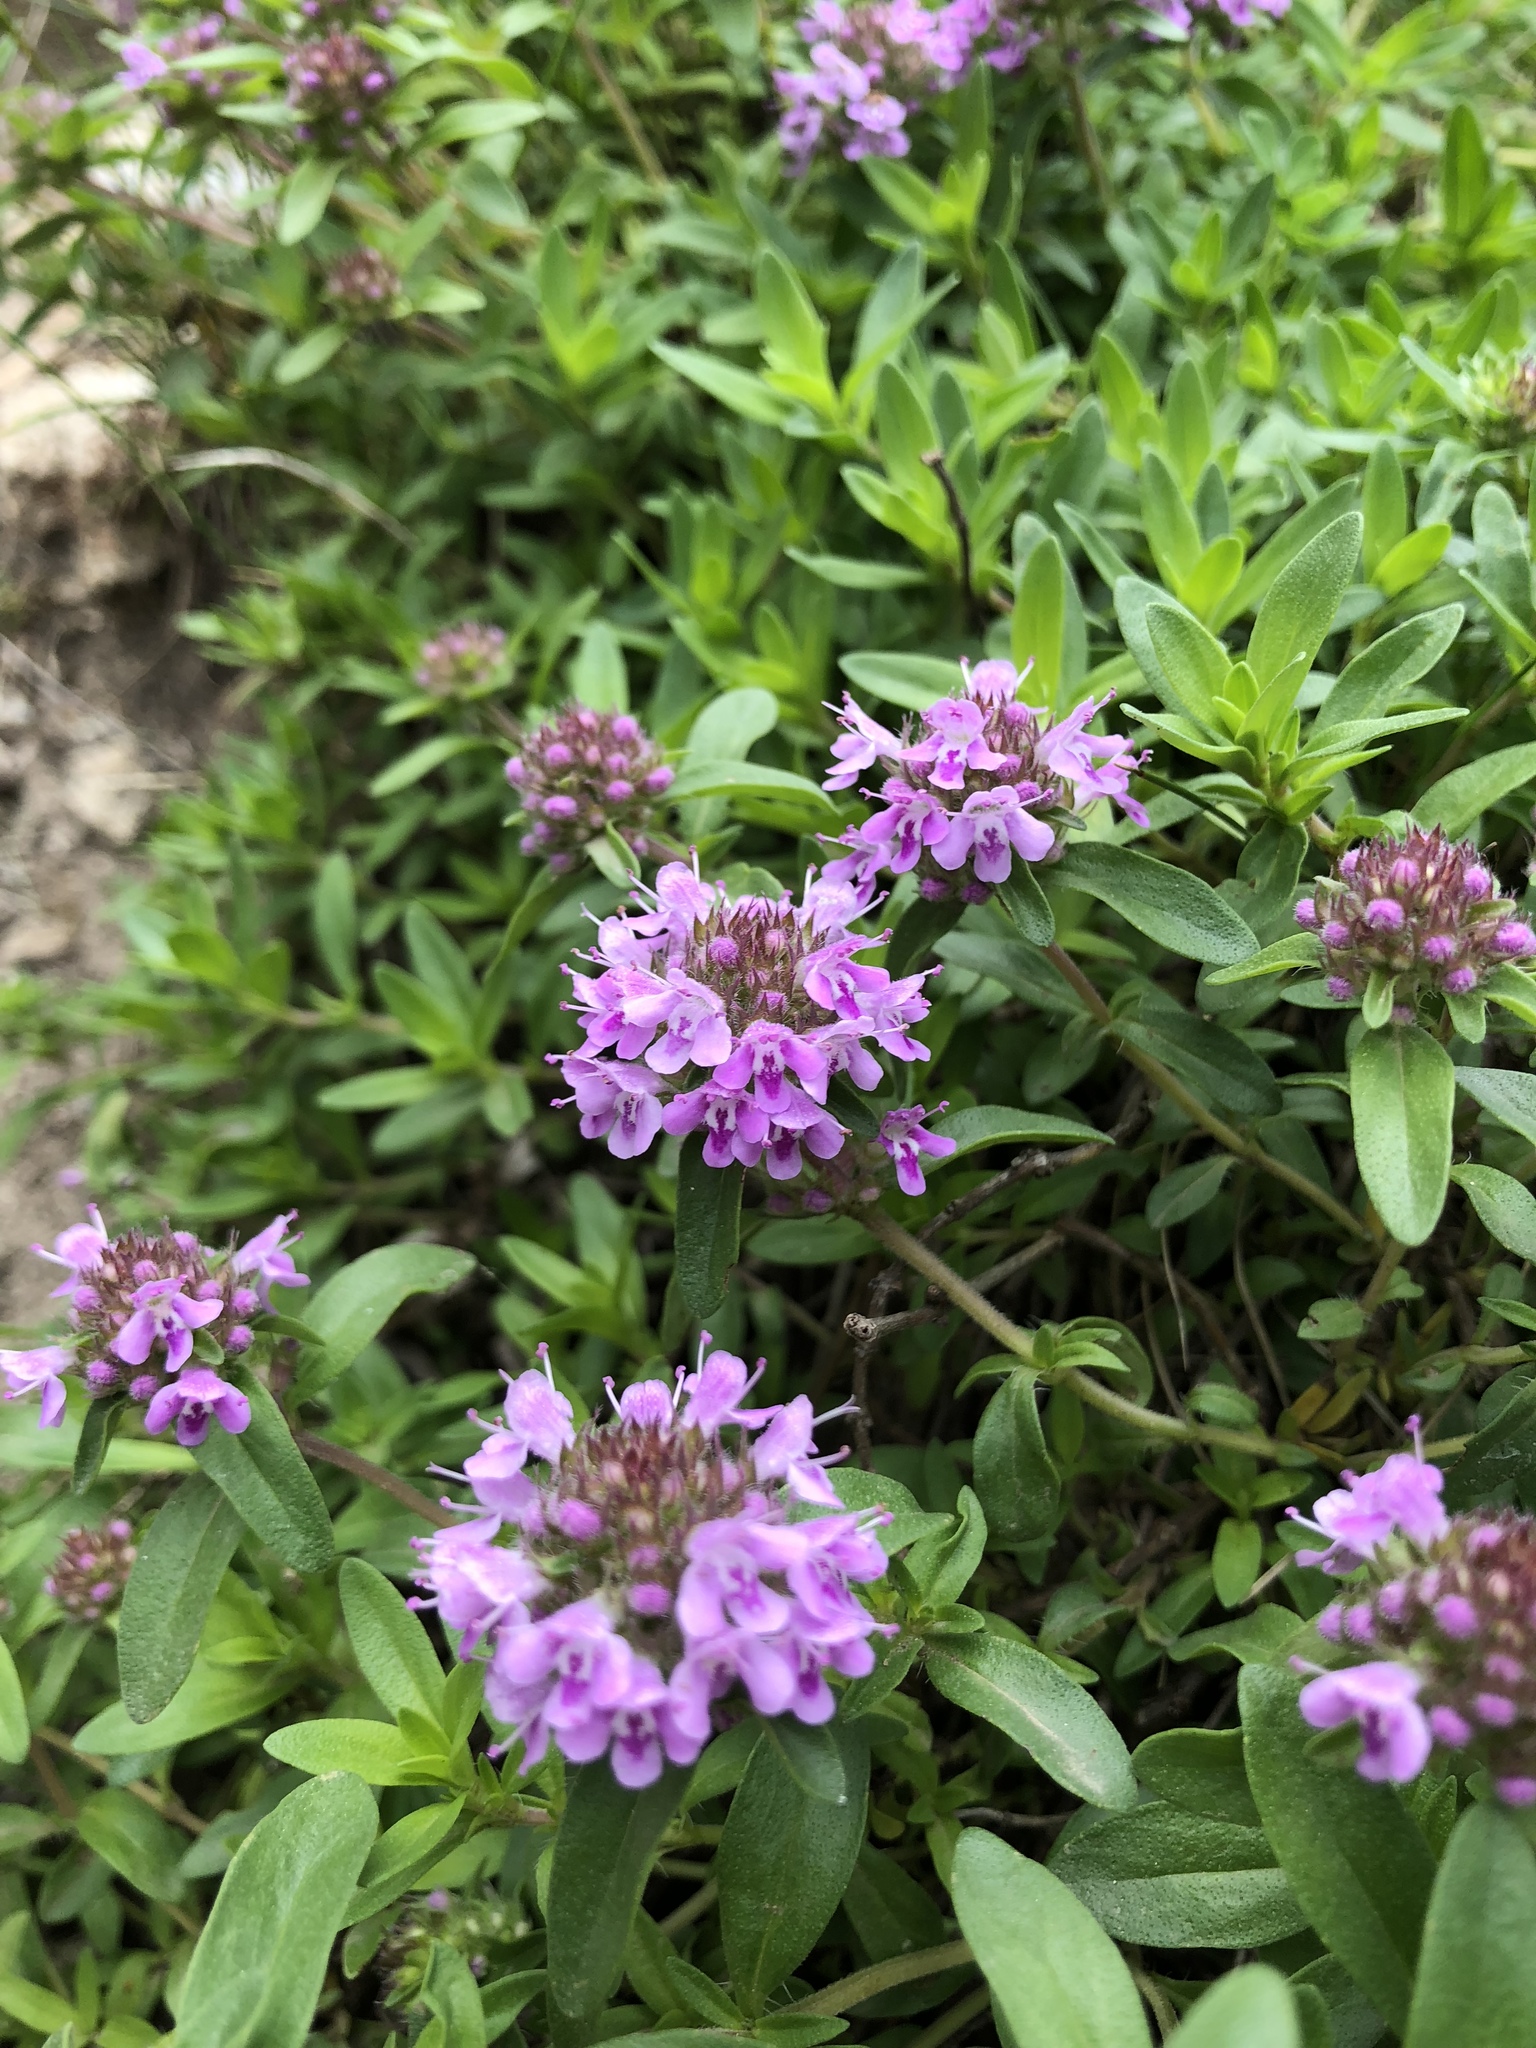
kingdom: Plantae
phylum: Tracheophyta
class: Magnoliopsida
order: Lamiales
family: Lamiaceae
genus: Thymus
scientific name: Thymus pulegioides
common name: Large thyme
